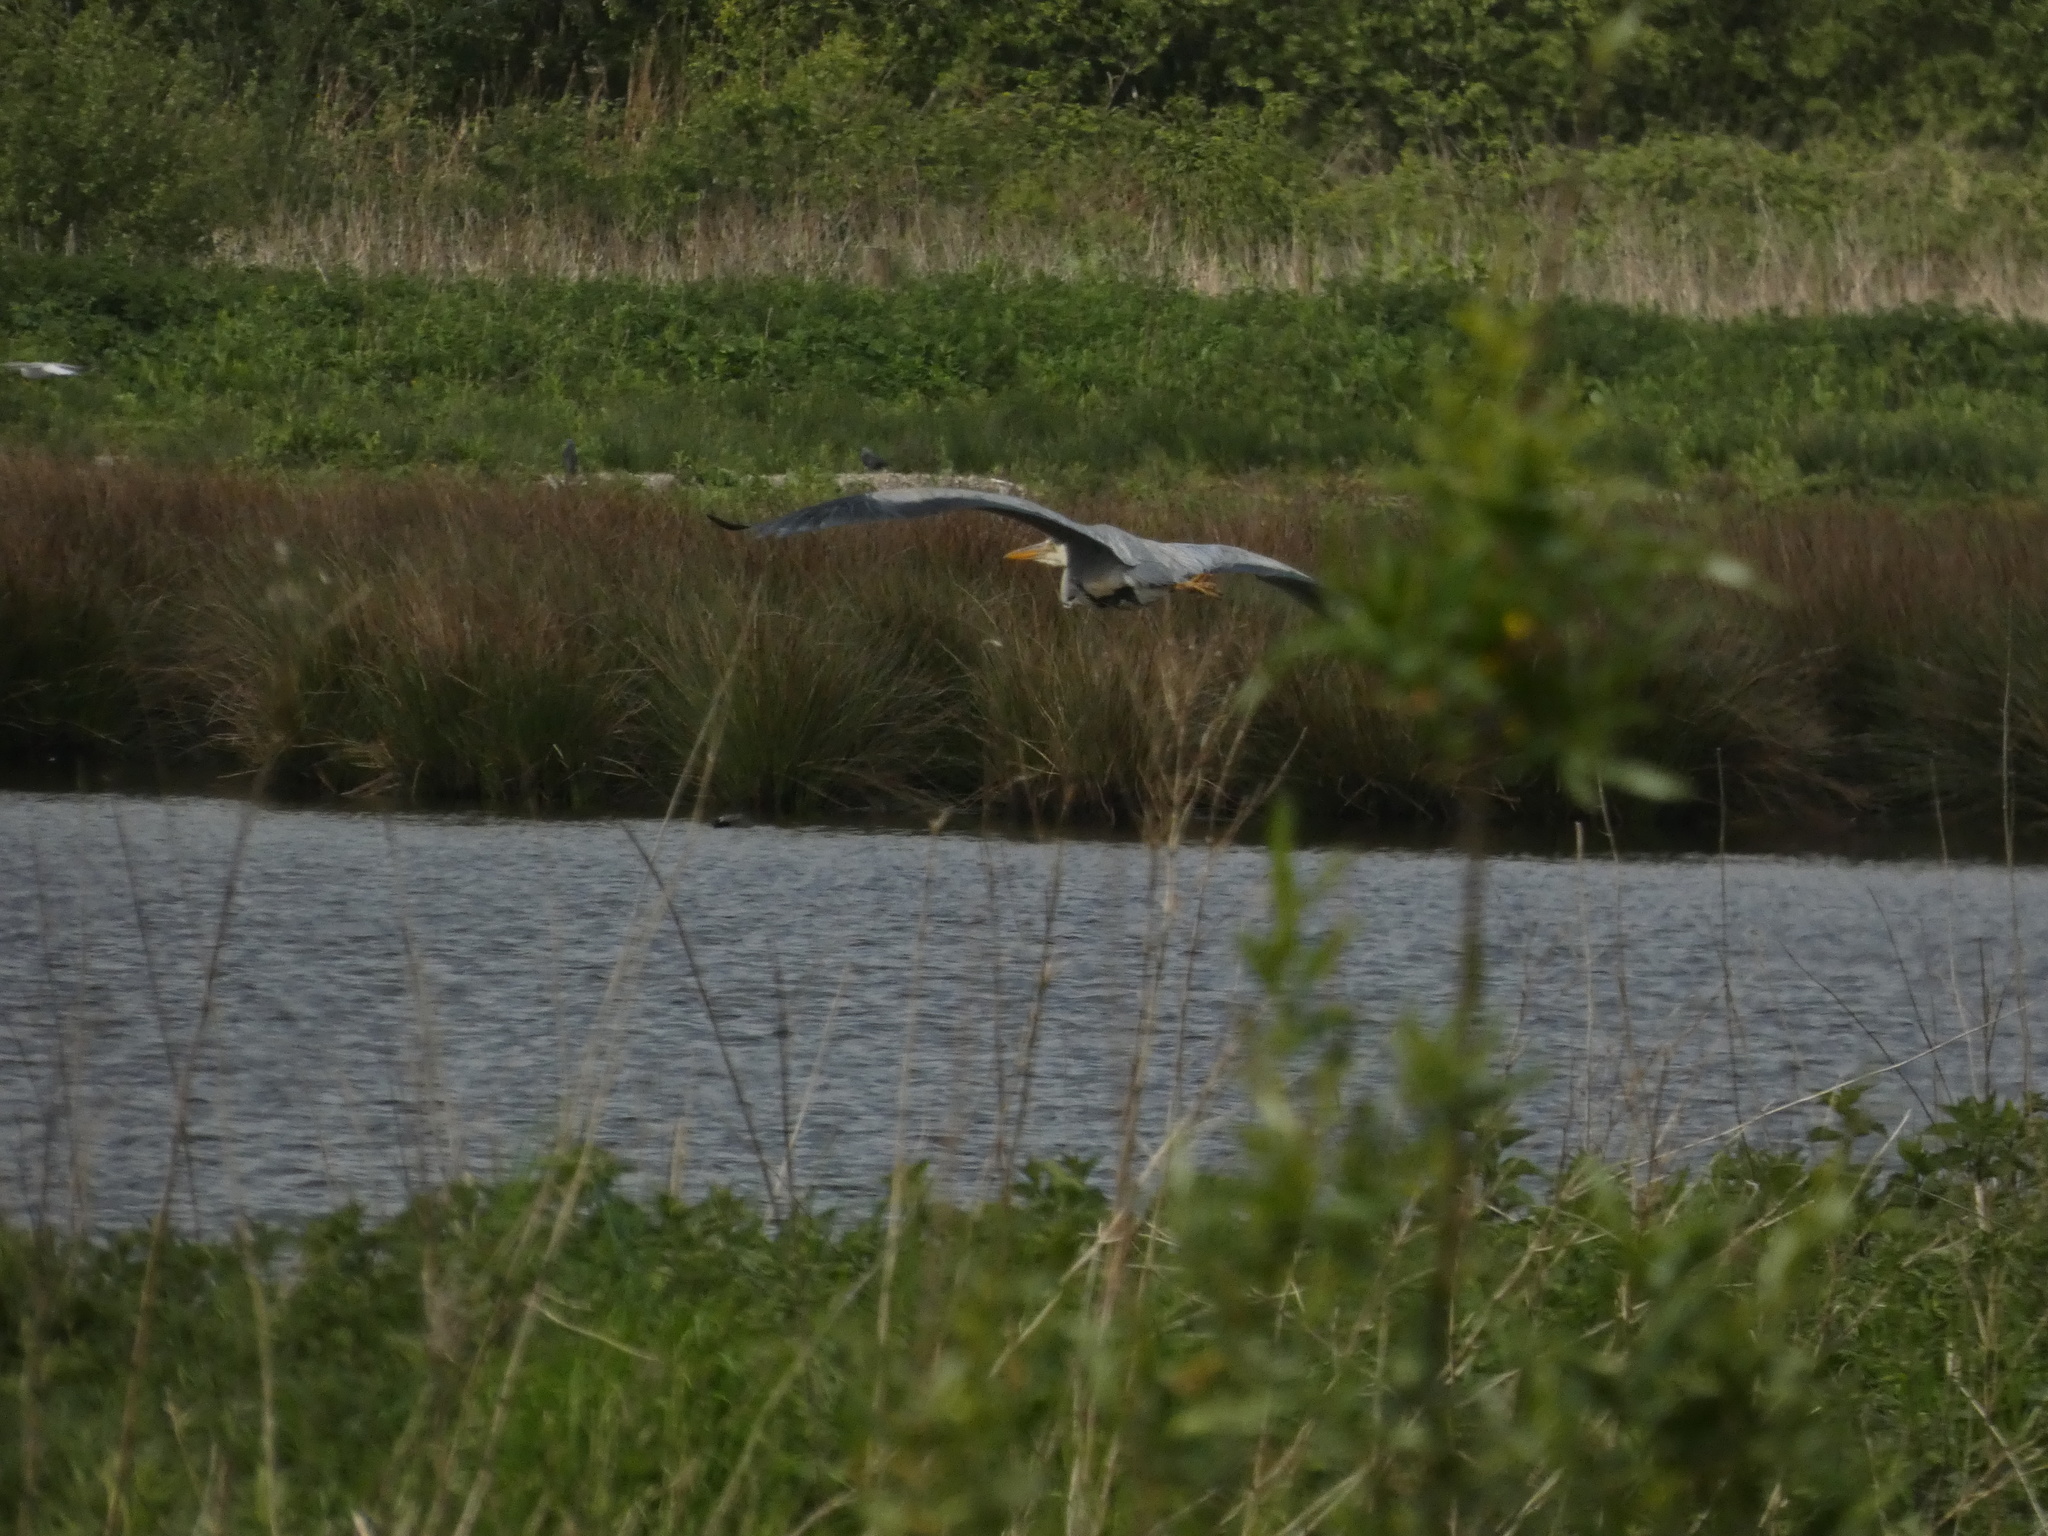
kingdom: Animalia
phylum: Chordata
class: Aves
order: Pelecaniformes
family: Ardeidae
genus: Ardea
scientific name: Ardea cinerea
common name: Grey heron
